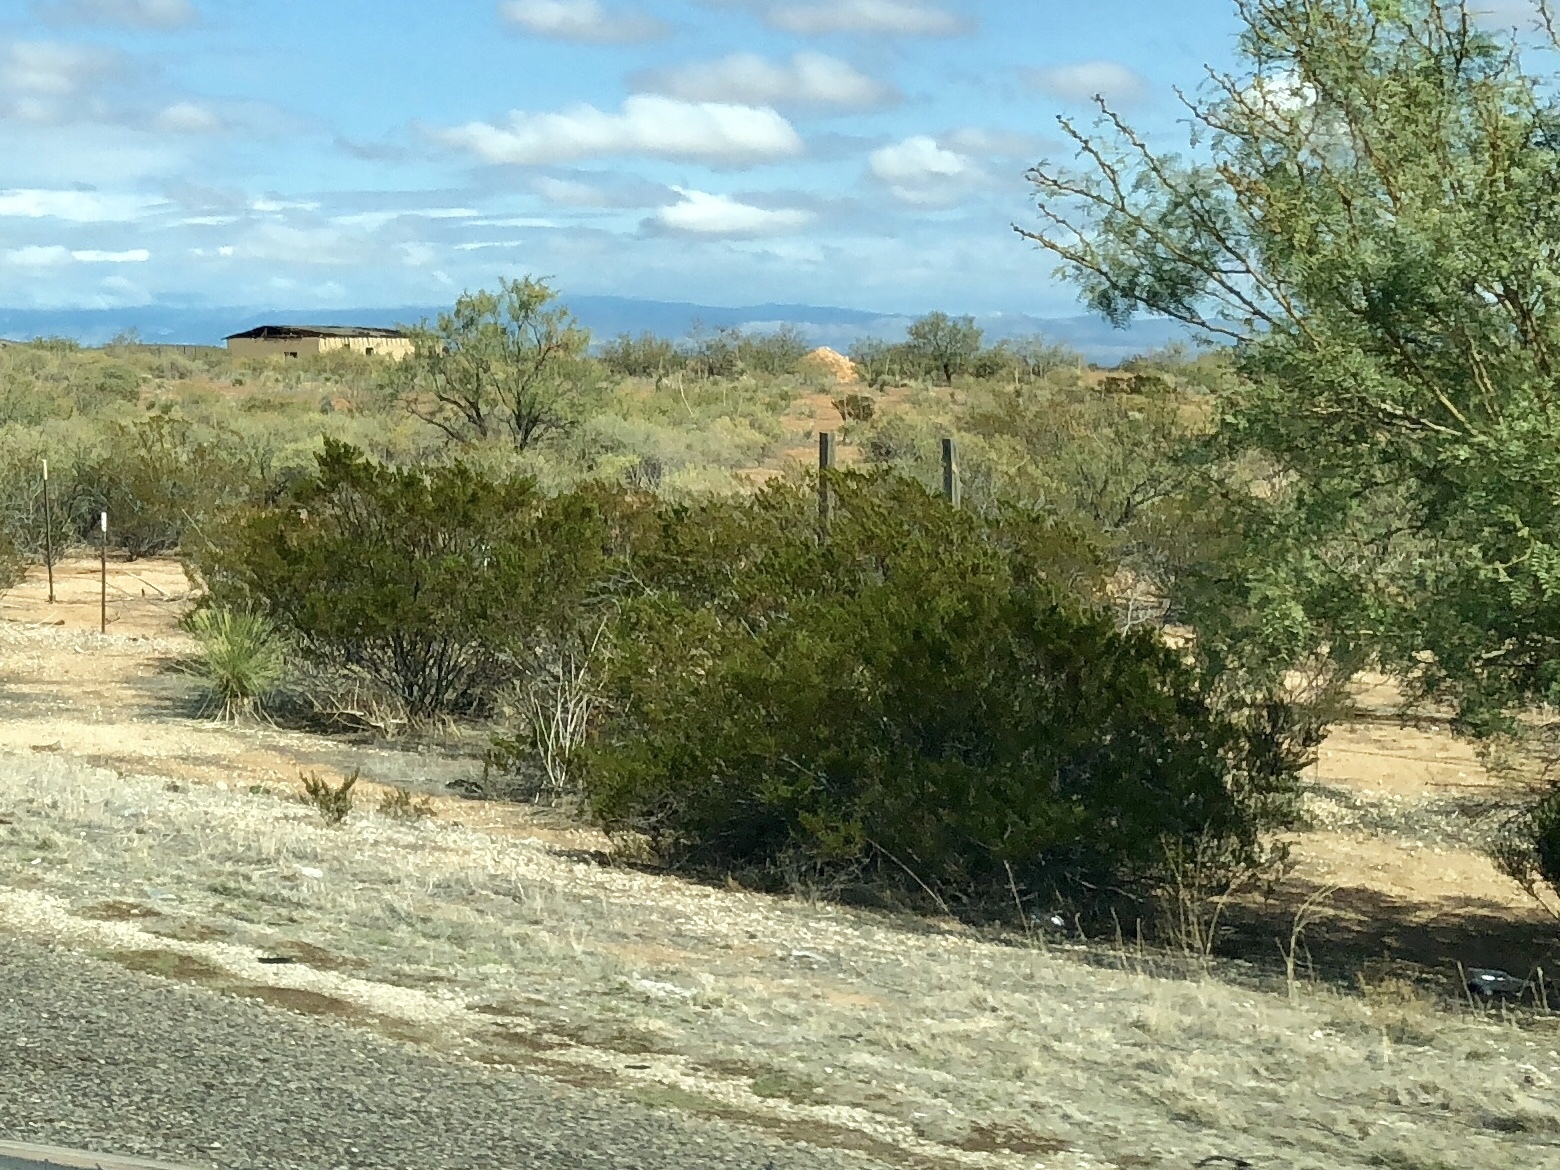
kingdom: Plantae
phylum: Tracheophyta
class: Magnoliopsida
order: Zygophyllales
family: Zygophyllaceae
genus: Larrea
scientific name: Larrea tridentata
